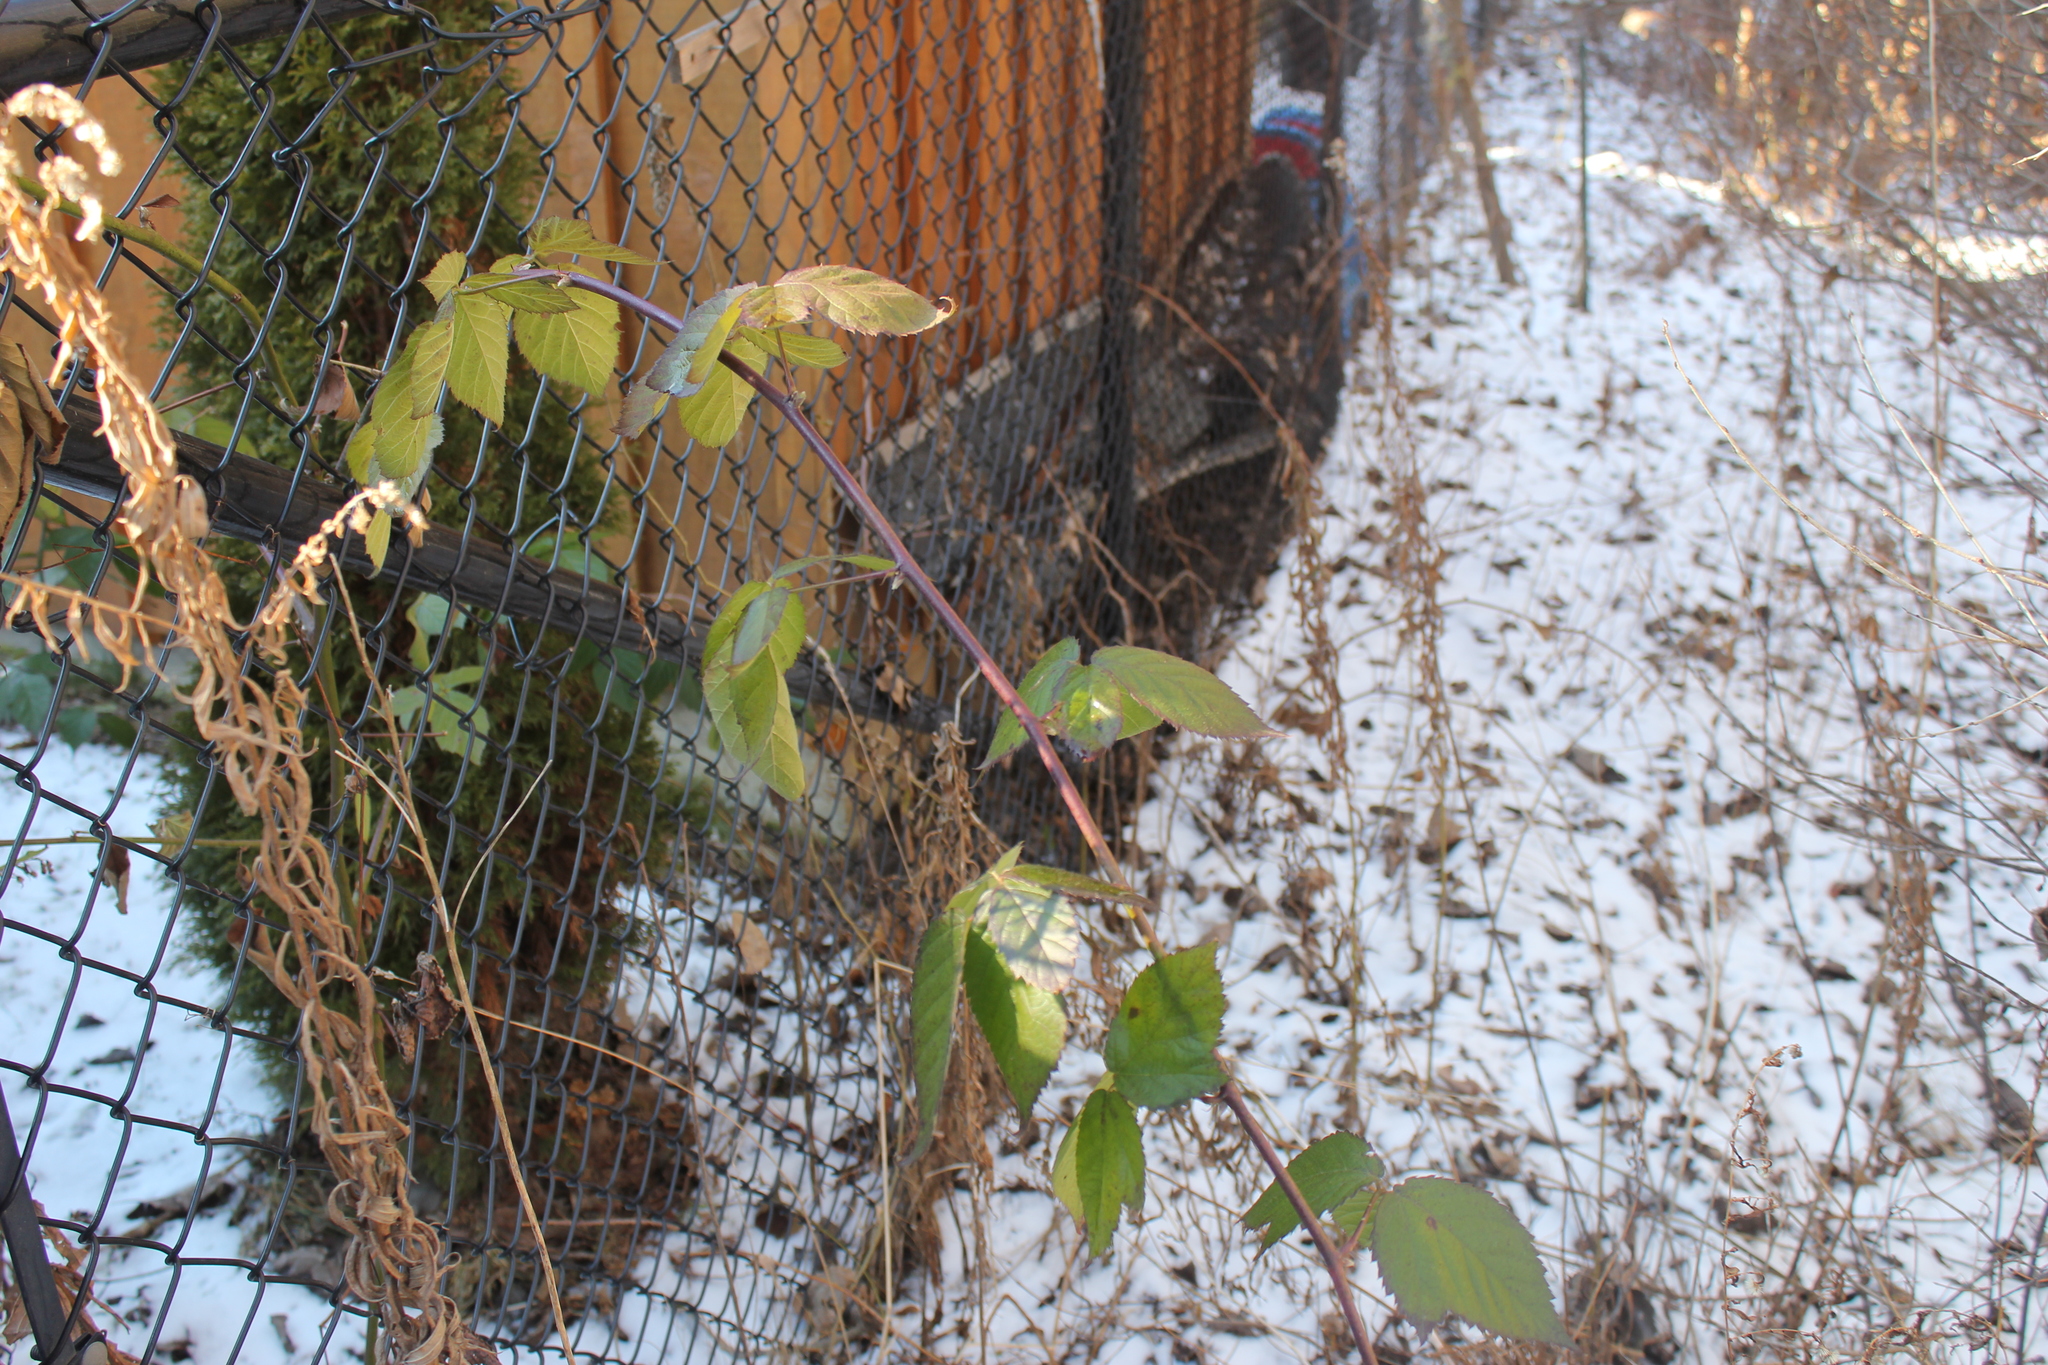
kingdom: Plantae
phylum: Tracheophyta
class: Magnoliopsida
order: Rosales
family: Rosaceae
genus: Rubus
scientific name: Rubus allegheniensis
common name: Allegheny blackberry
